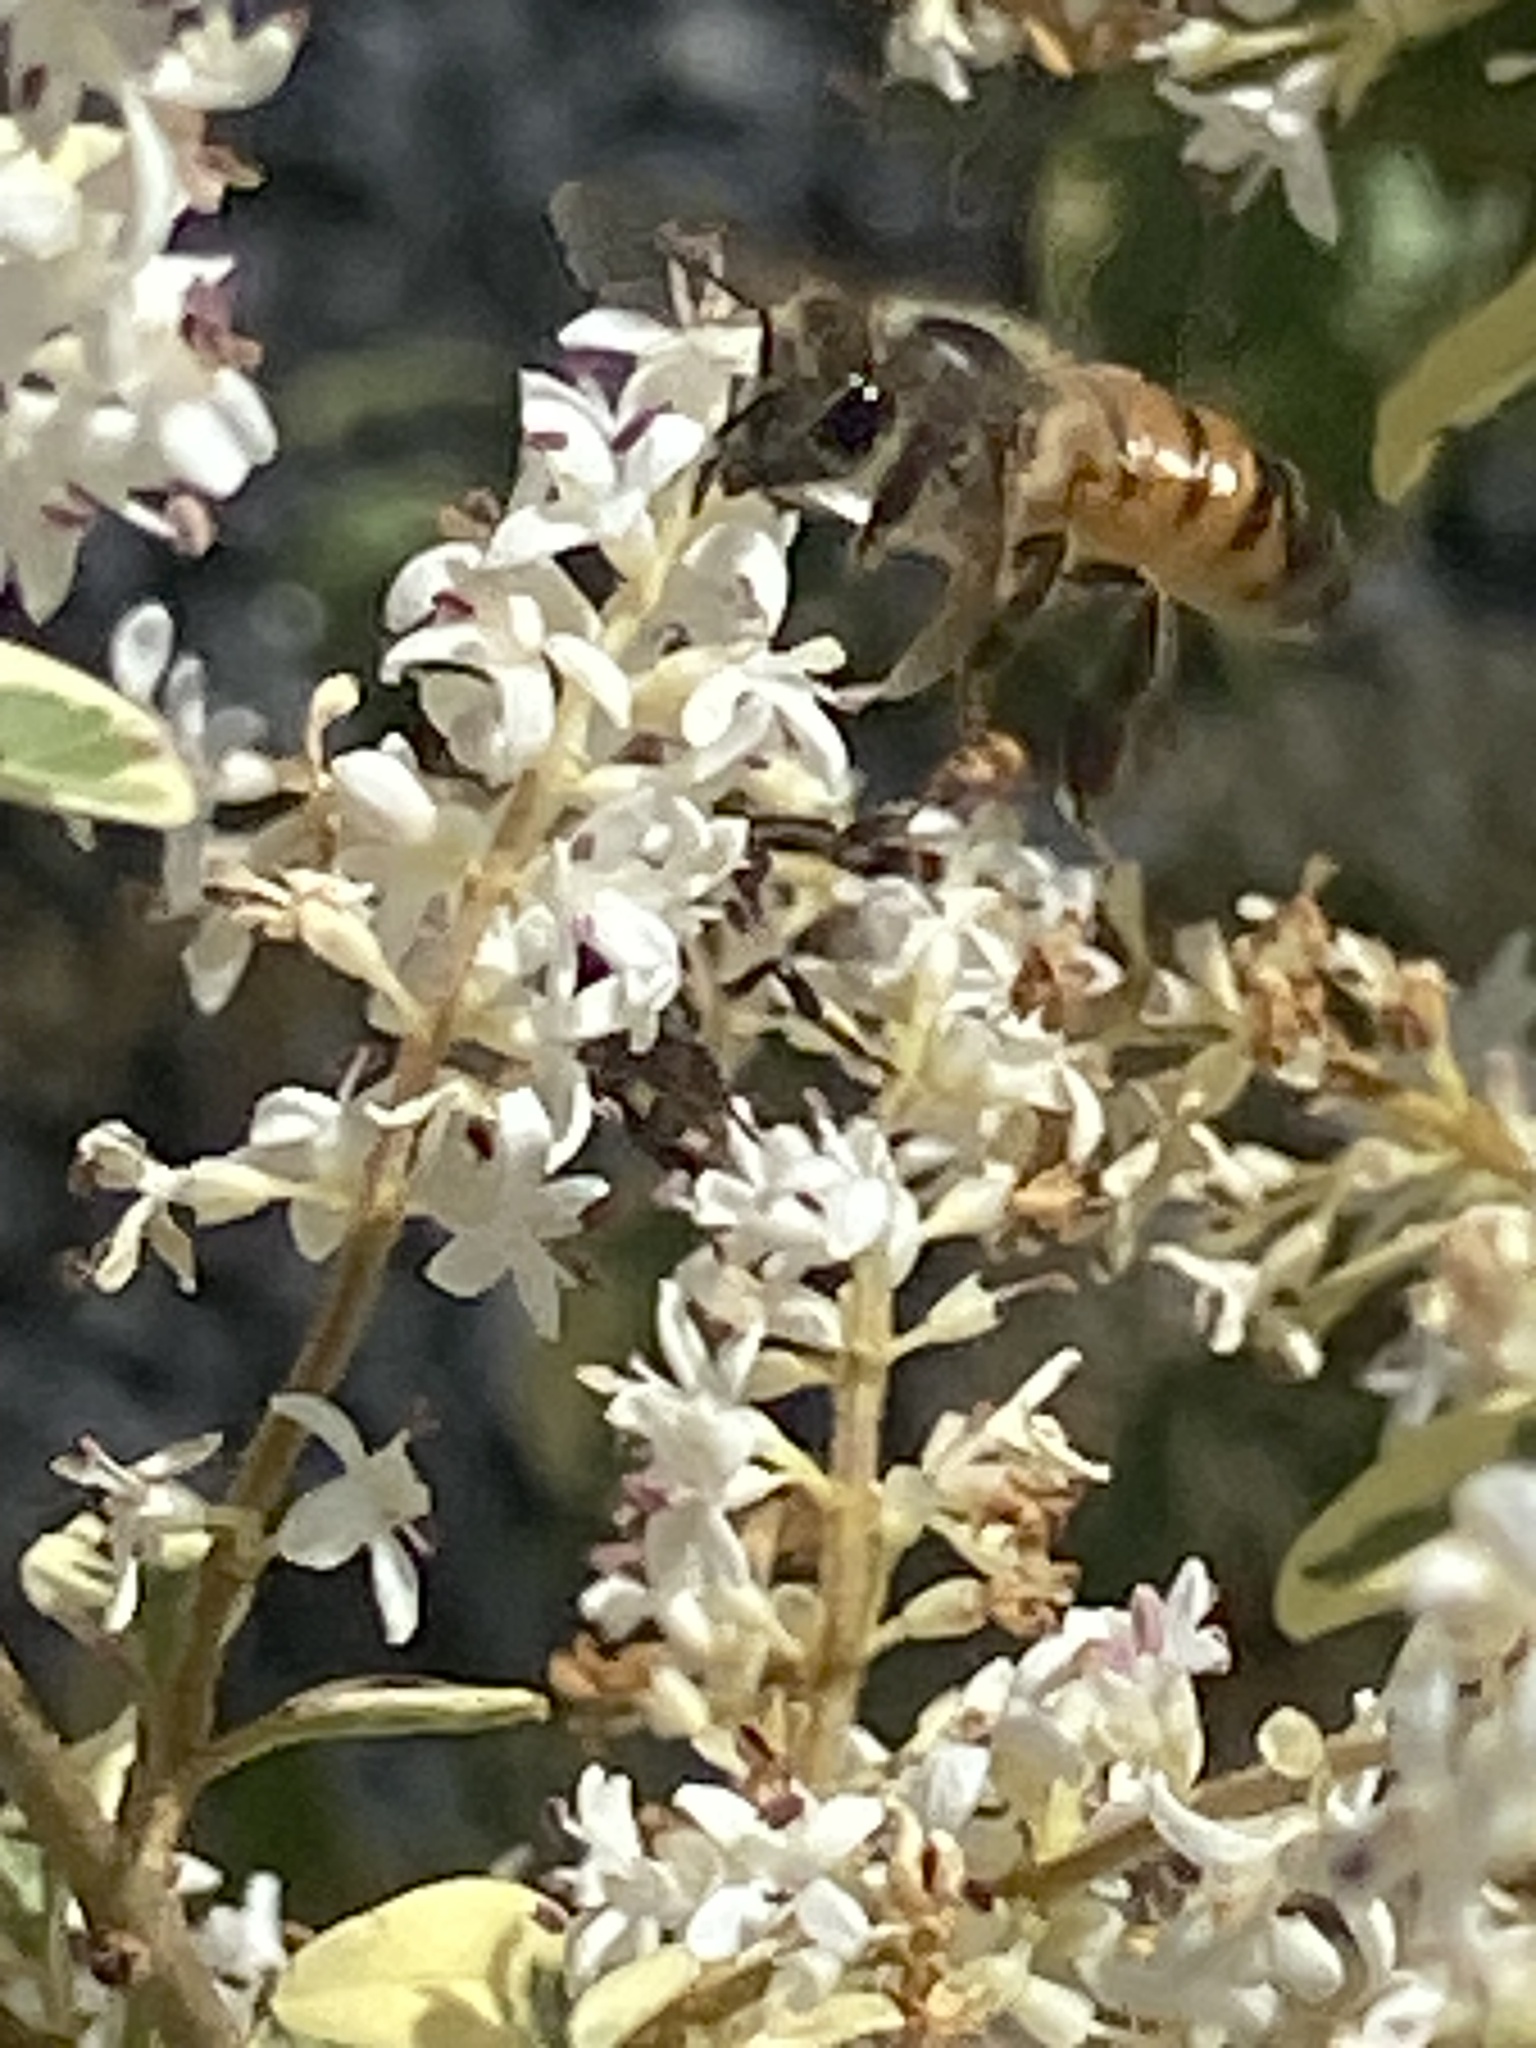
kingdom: Animalia
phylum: Arthropoda
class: Insecta
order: Hymenoptera
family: Apidae
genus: Apis
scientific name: Apis mellifera
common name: Honey bee
